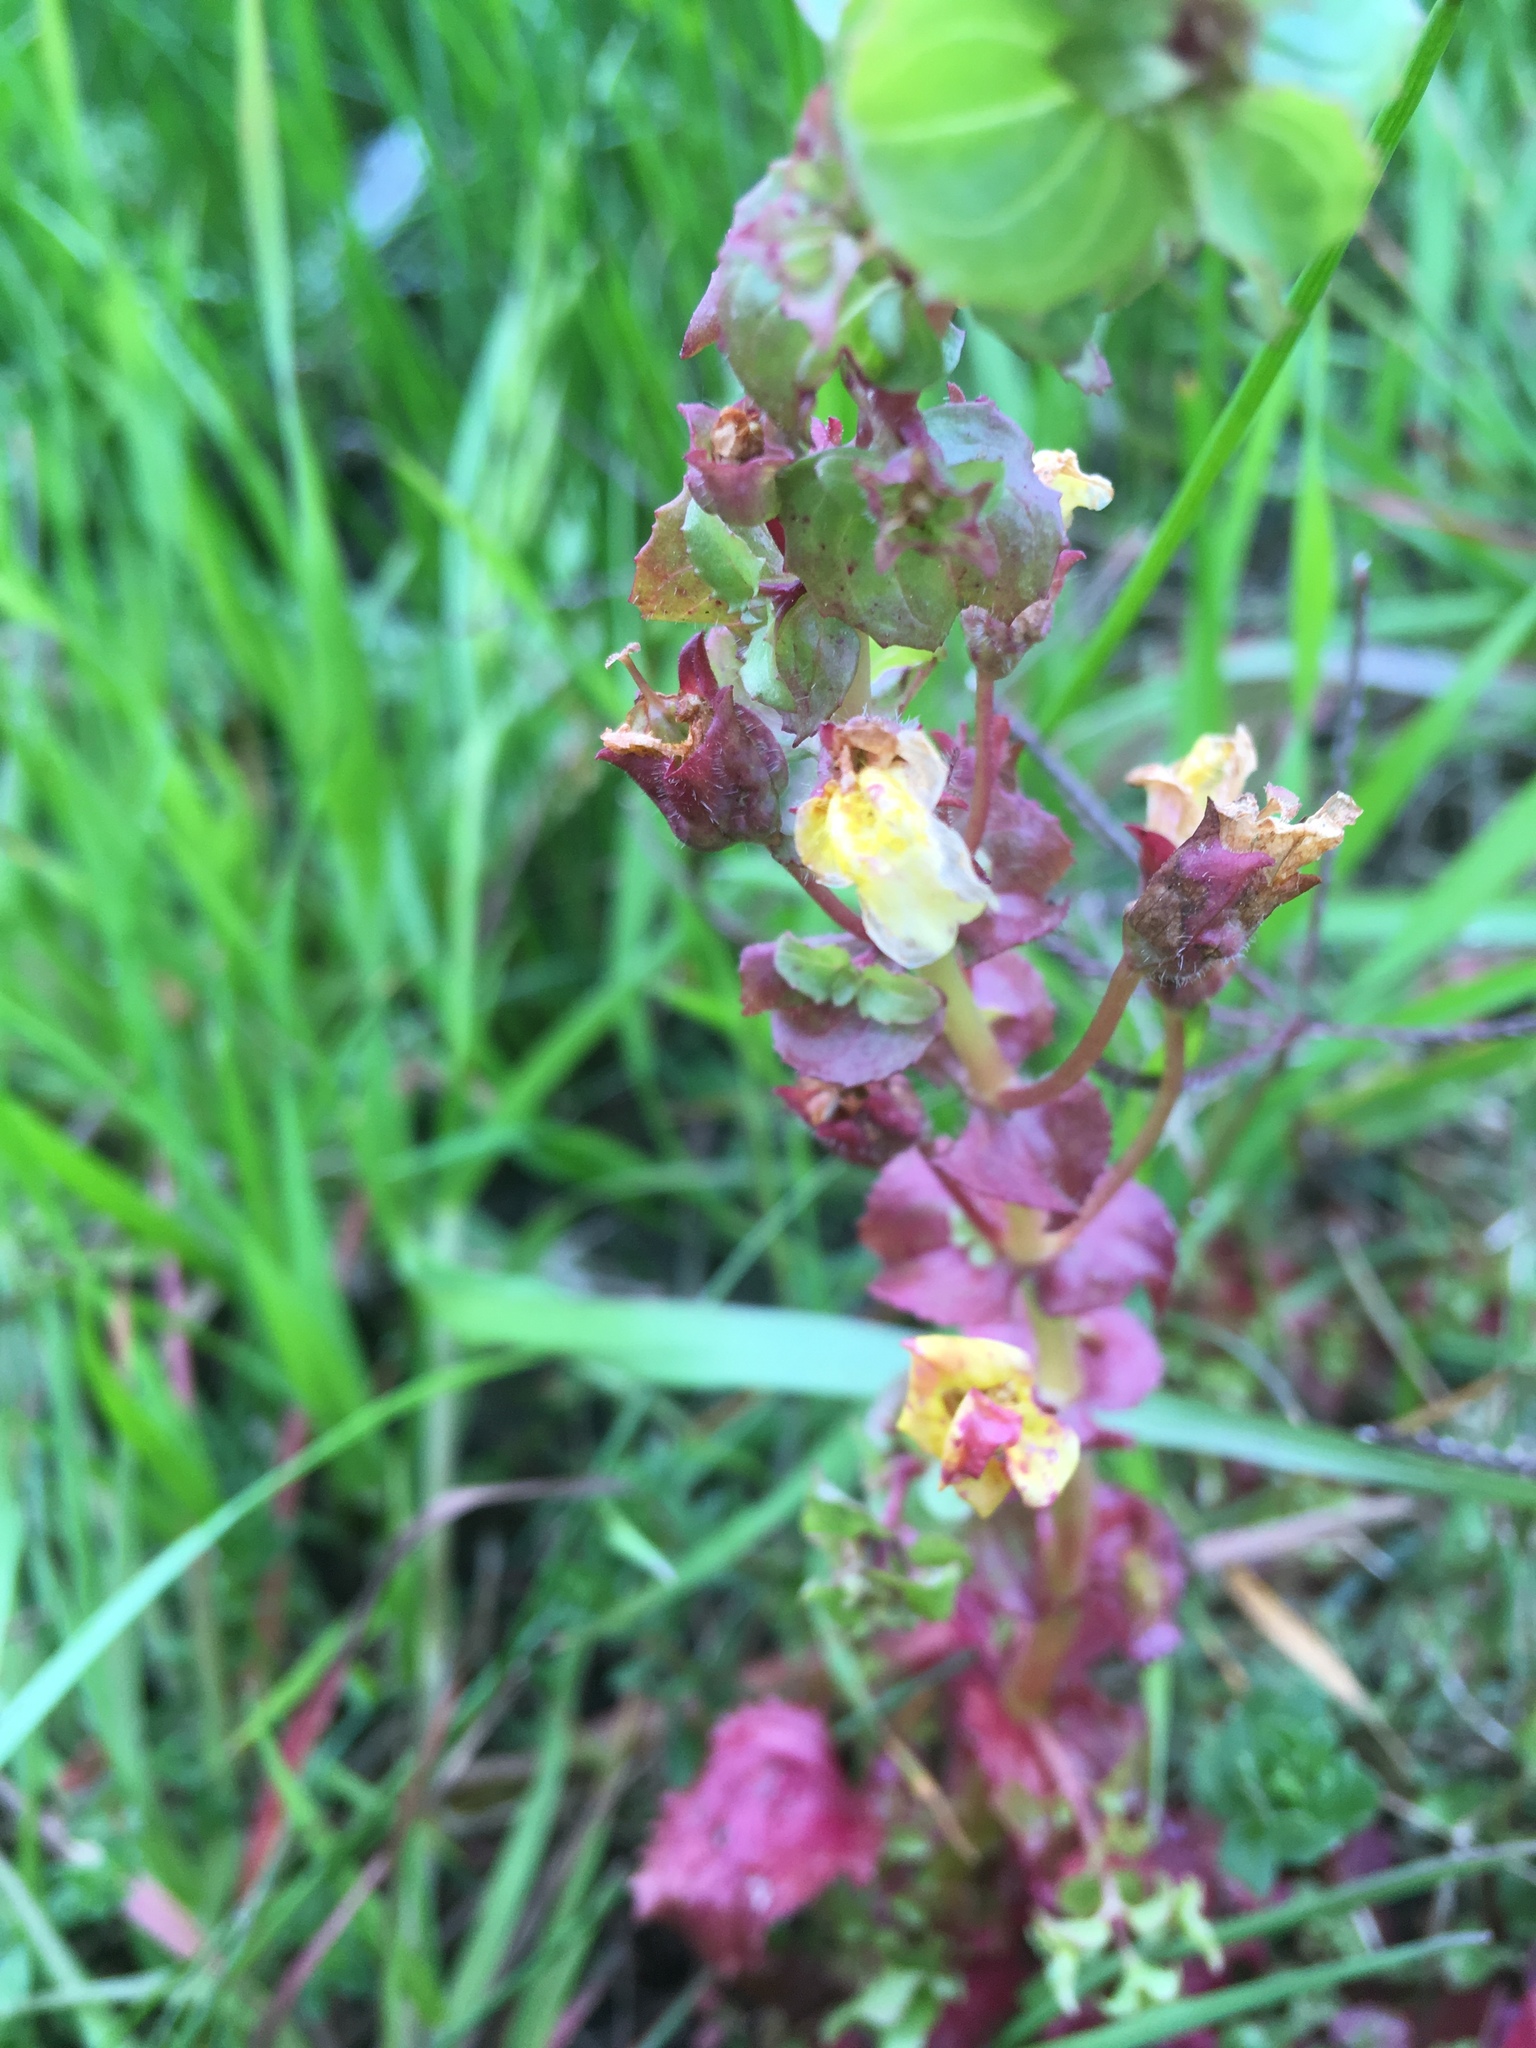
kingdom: Plantae
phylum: Tracheophyta
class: Magnoliopsida
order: Lamiales
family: Phrymaceae
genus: Erythranthe
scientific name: Erythranthe guttata
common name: Monkeyflower
